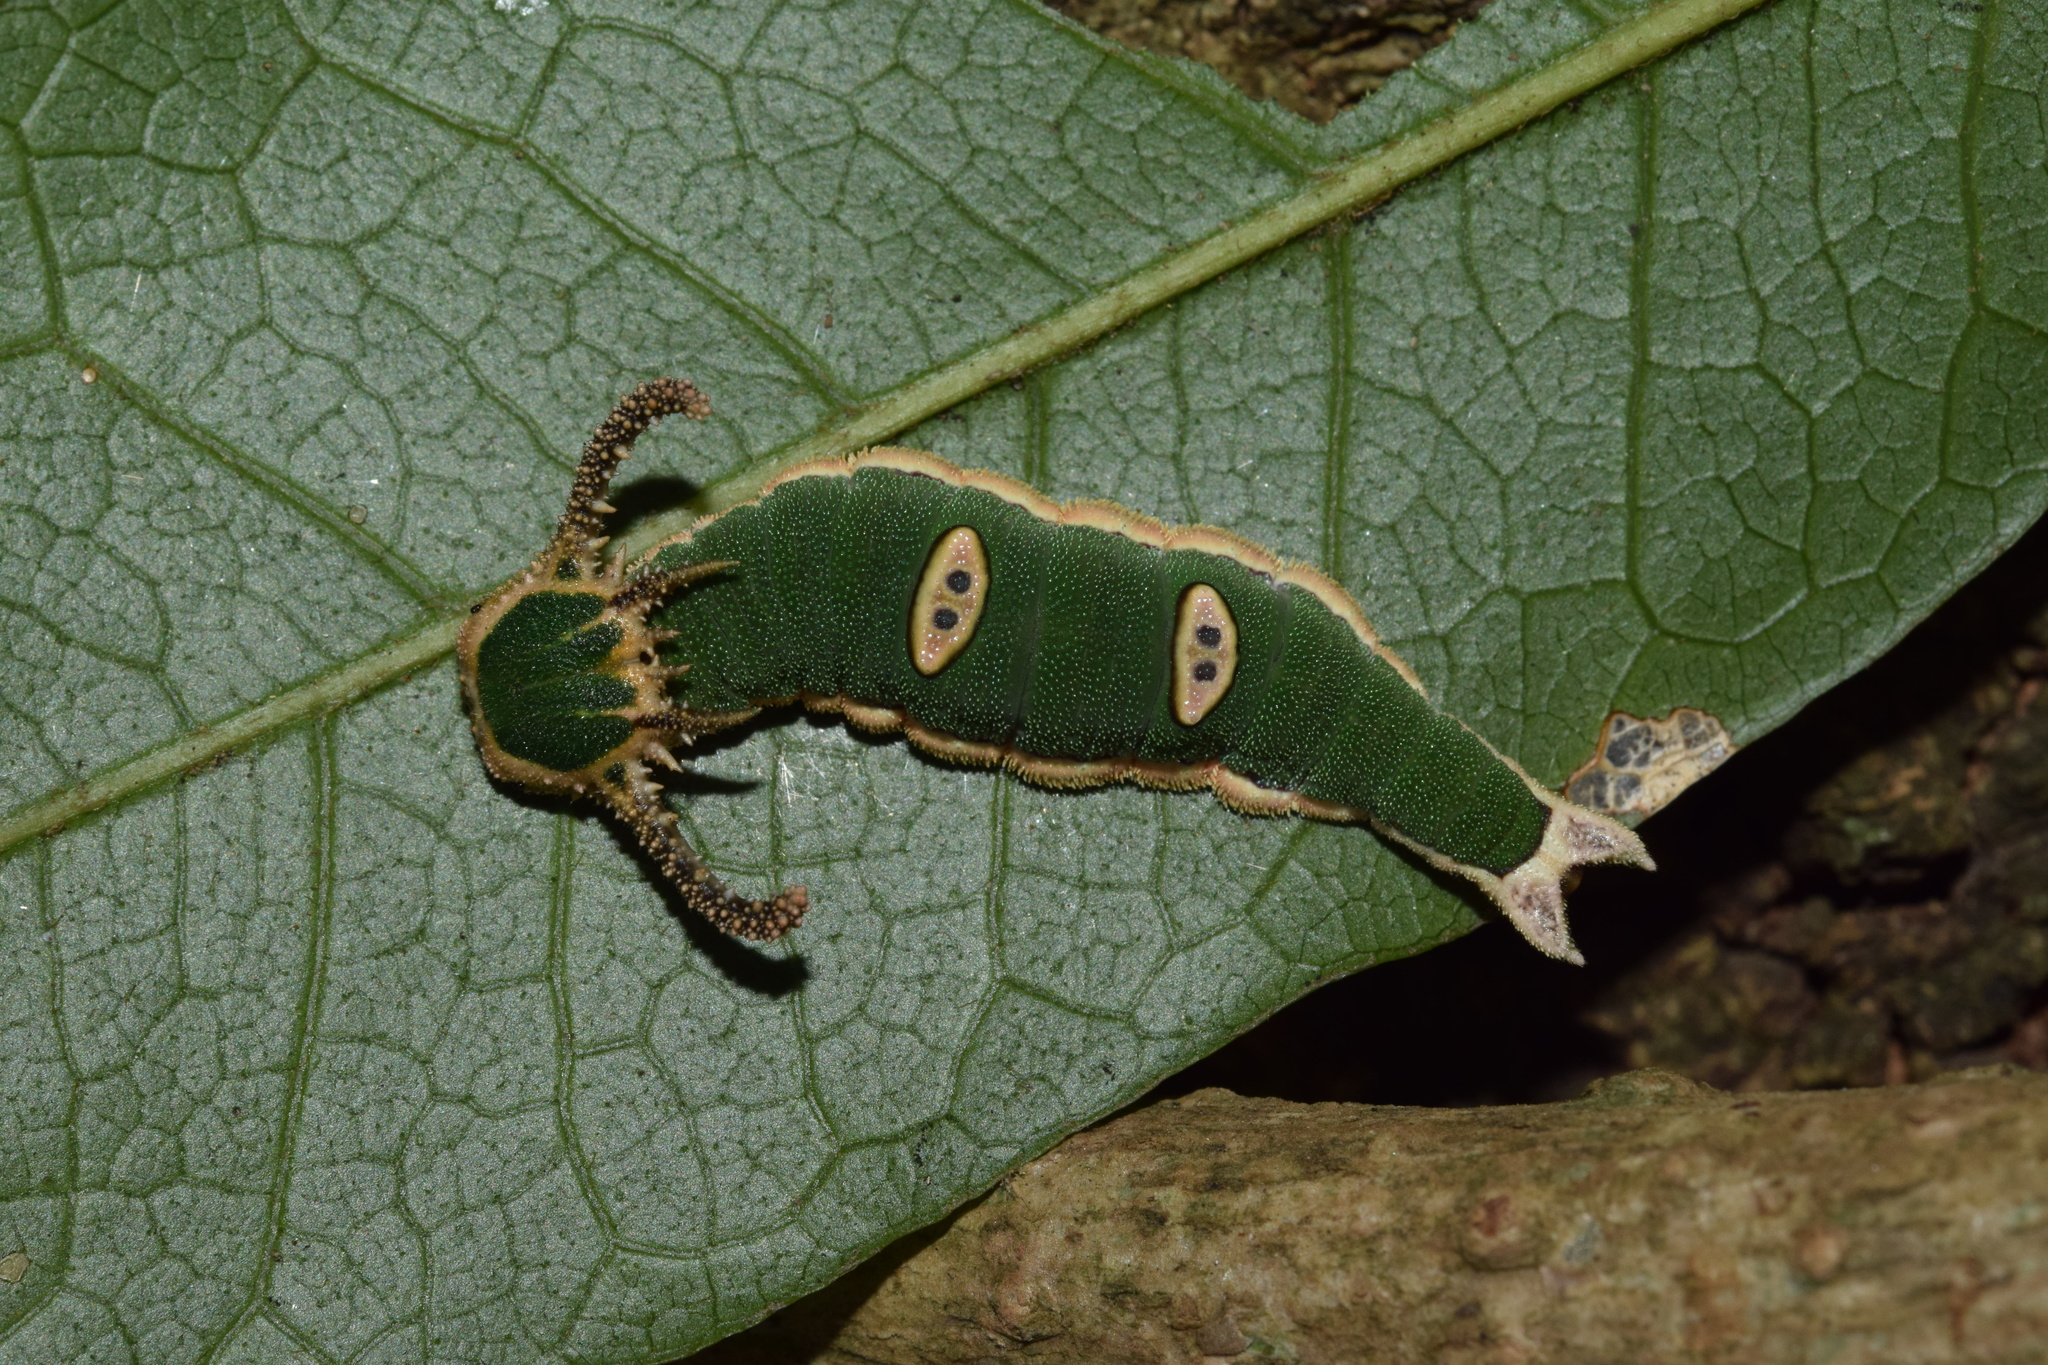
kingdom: Animalia
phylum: Arthropoda
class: Insecta
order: Lepidoptera
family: Nymphalidae
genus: Charaxes
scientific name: Charaxes wakefieldi
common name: Forest queen
